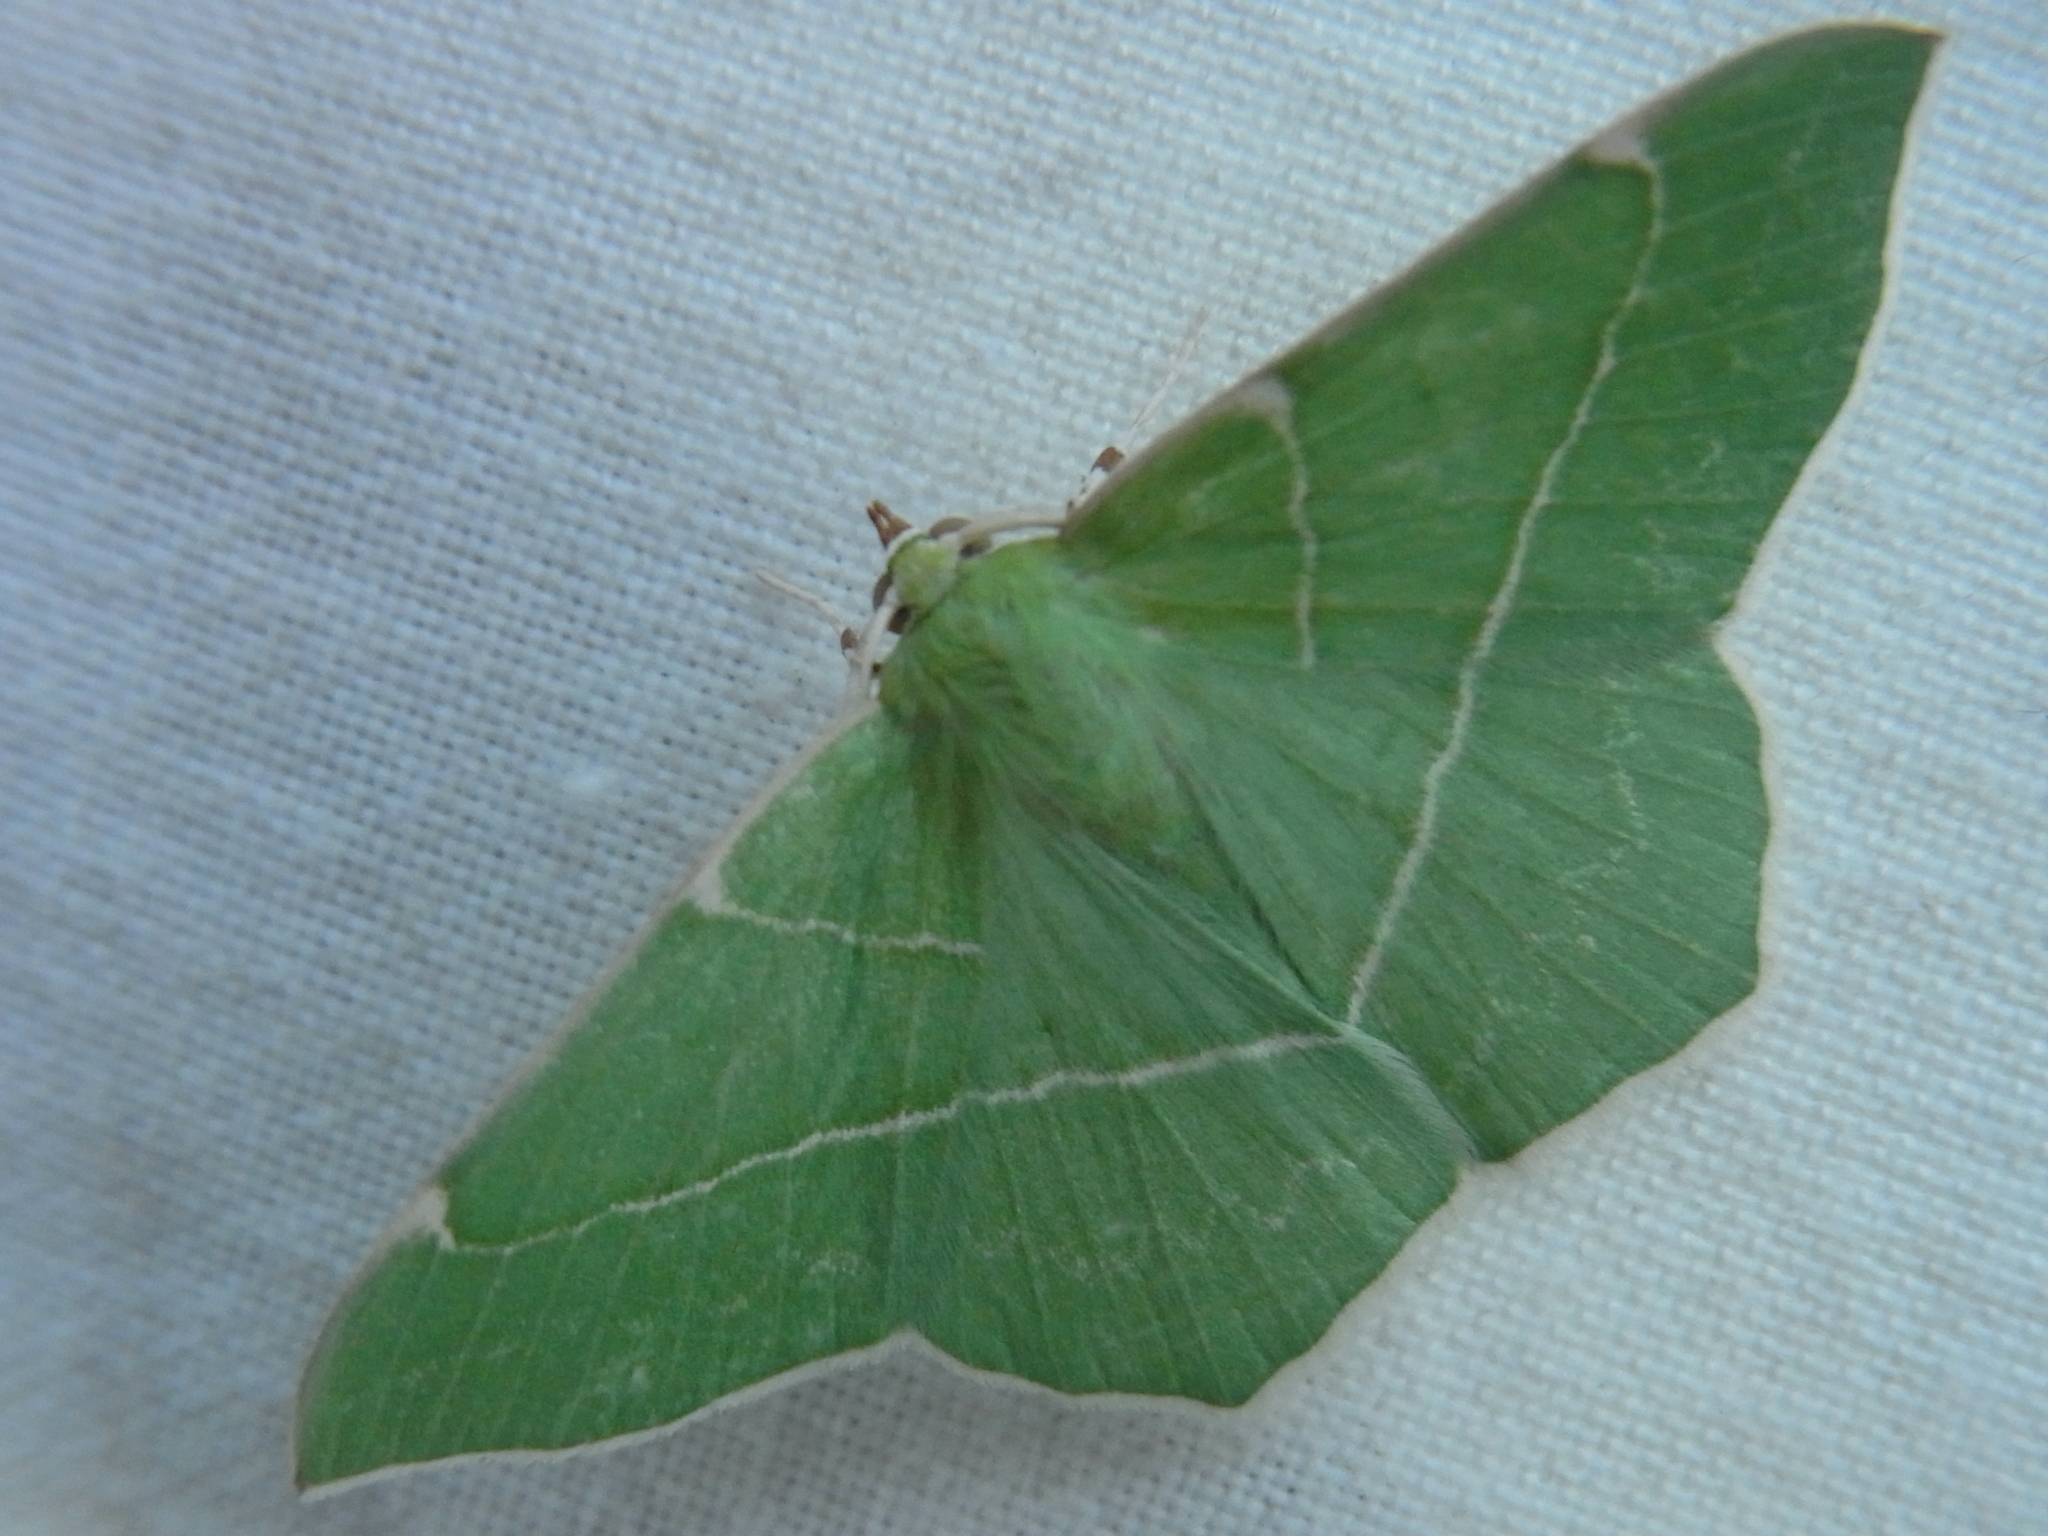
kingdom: Animalia
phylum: Arthropoda
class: Insecta
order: Lepidoptera
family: Geometridae
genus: Geometra
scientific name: Geometra dieckmanni
